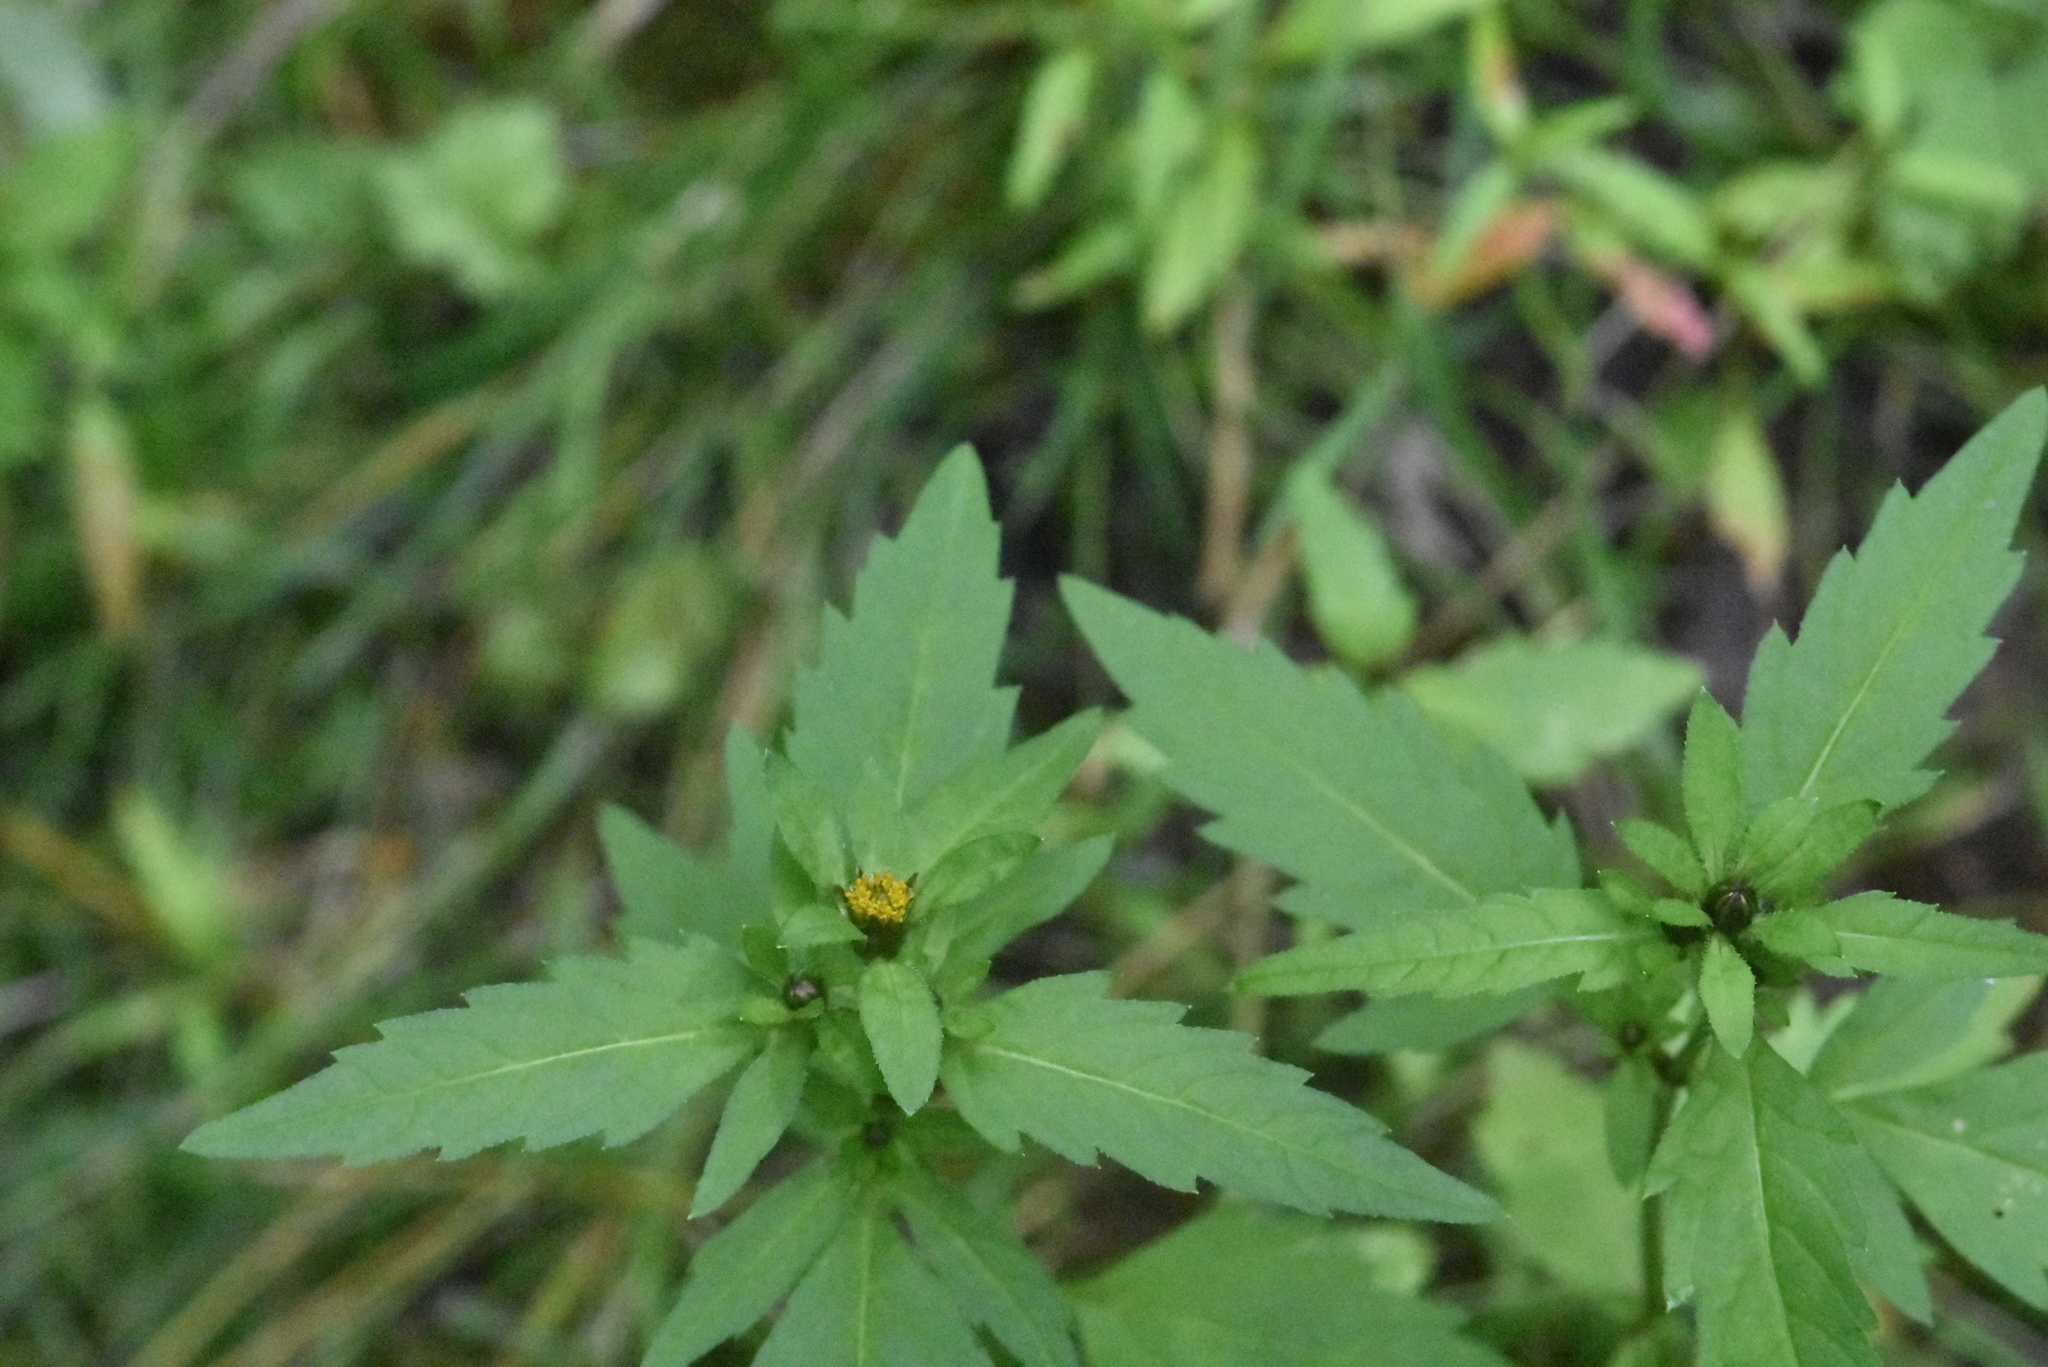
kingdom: Plantae
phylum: Tracheophyta
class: Magnoliopsida
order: Asterales
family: Asteraceae
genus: Bidens
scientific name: Bidens tripartita
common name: Trifid bur-marigold
